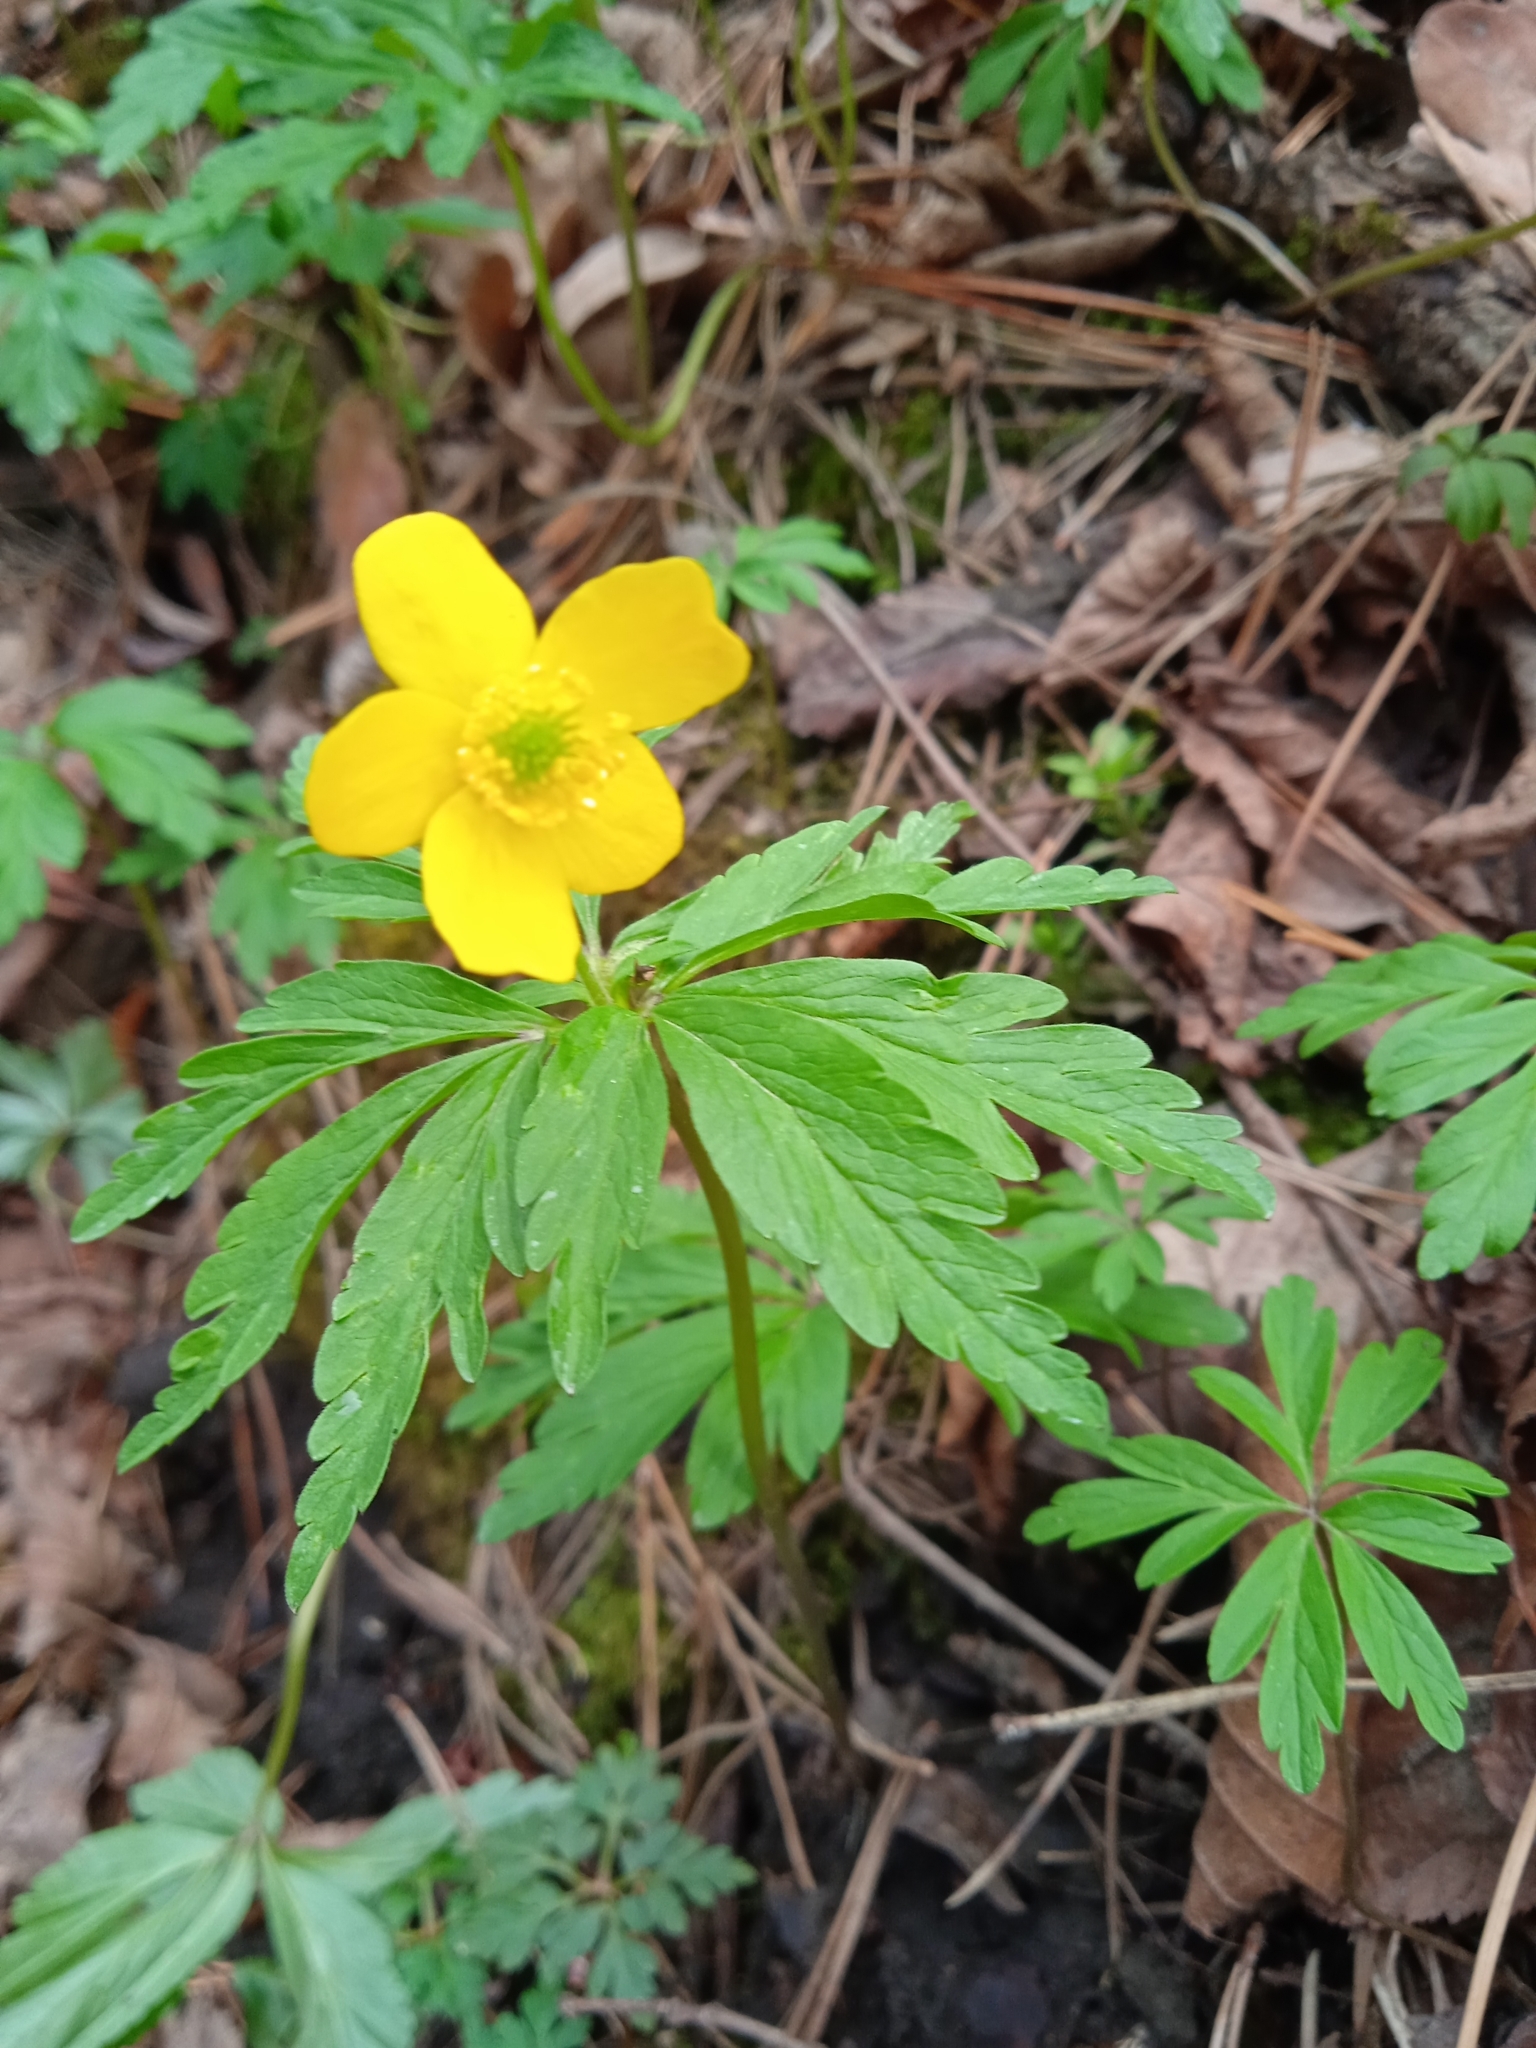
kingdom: Plantae
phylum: Tracheophyta
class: Magnoliopsida
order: Ranunculales
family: Ranunculaceae
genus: Anemone
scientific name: Anemone ranunculoides
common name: Yellow anemone
